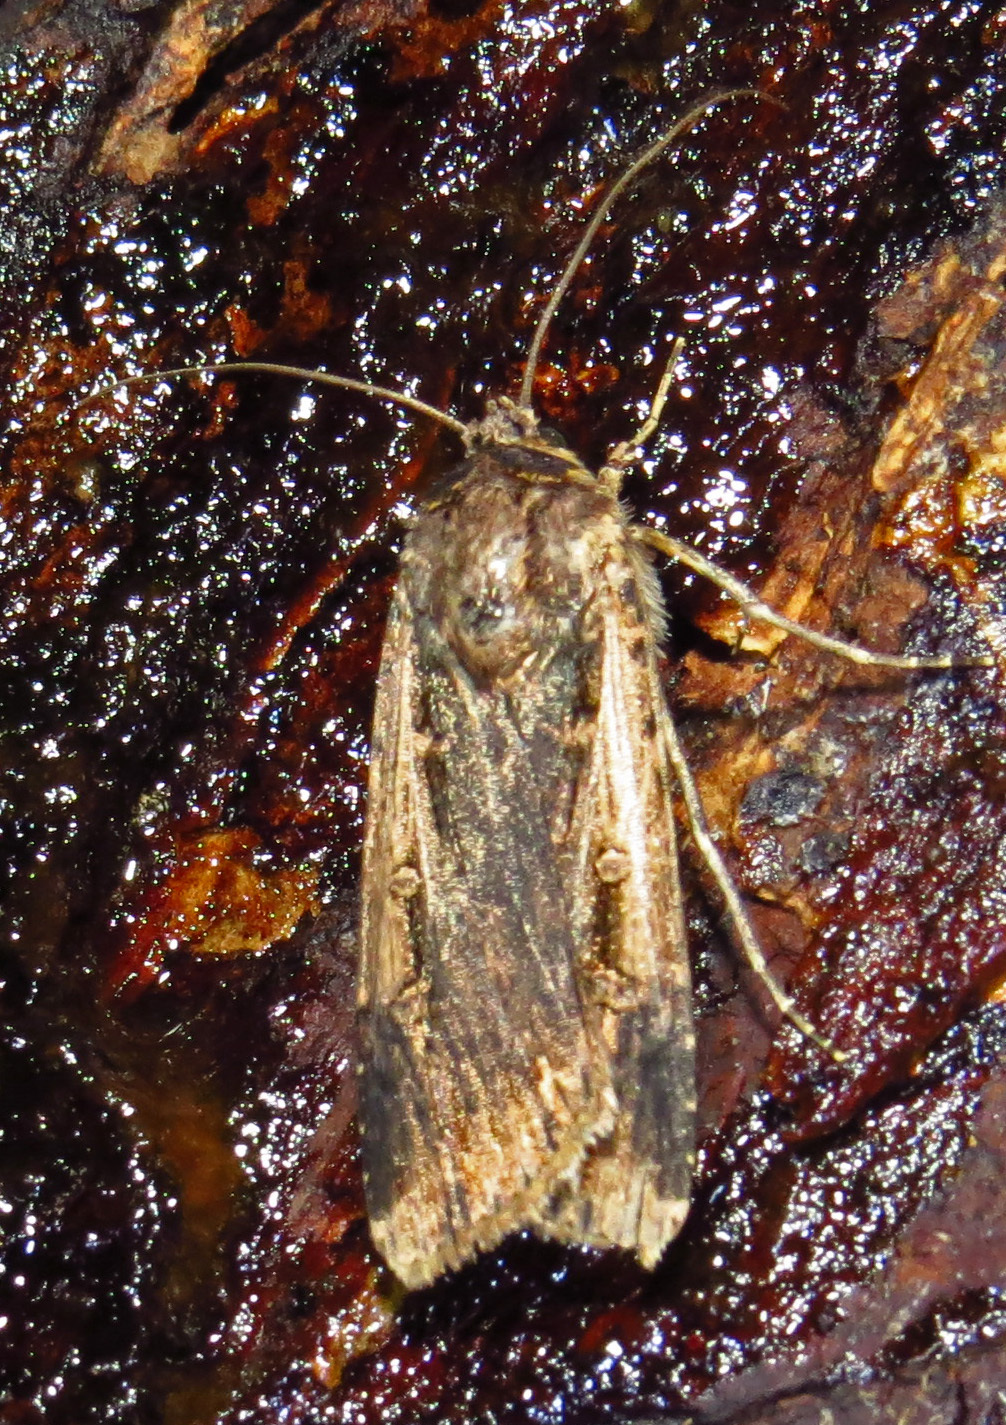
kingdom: Animalia
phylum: Arthropoda
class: Insecta
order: Lepidoptera
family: Noctuidae
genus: Feltia
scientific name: Feltia subterranea
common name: Granulate cutworm
